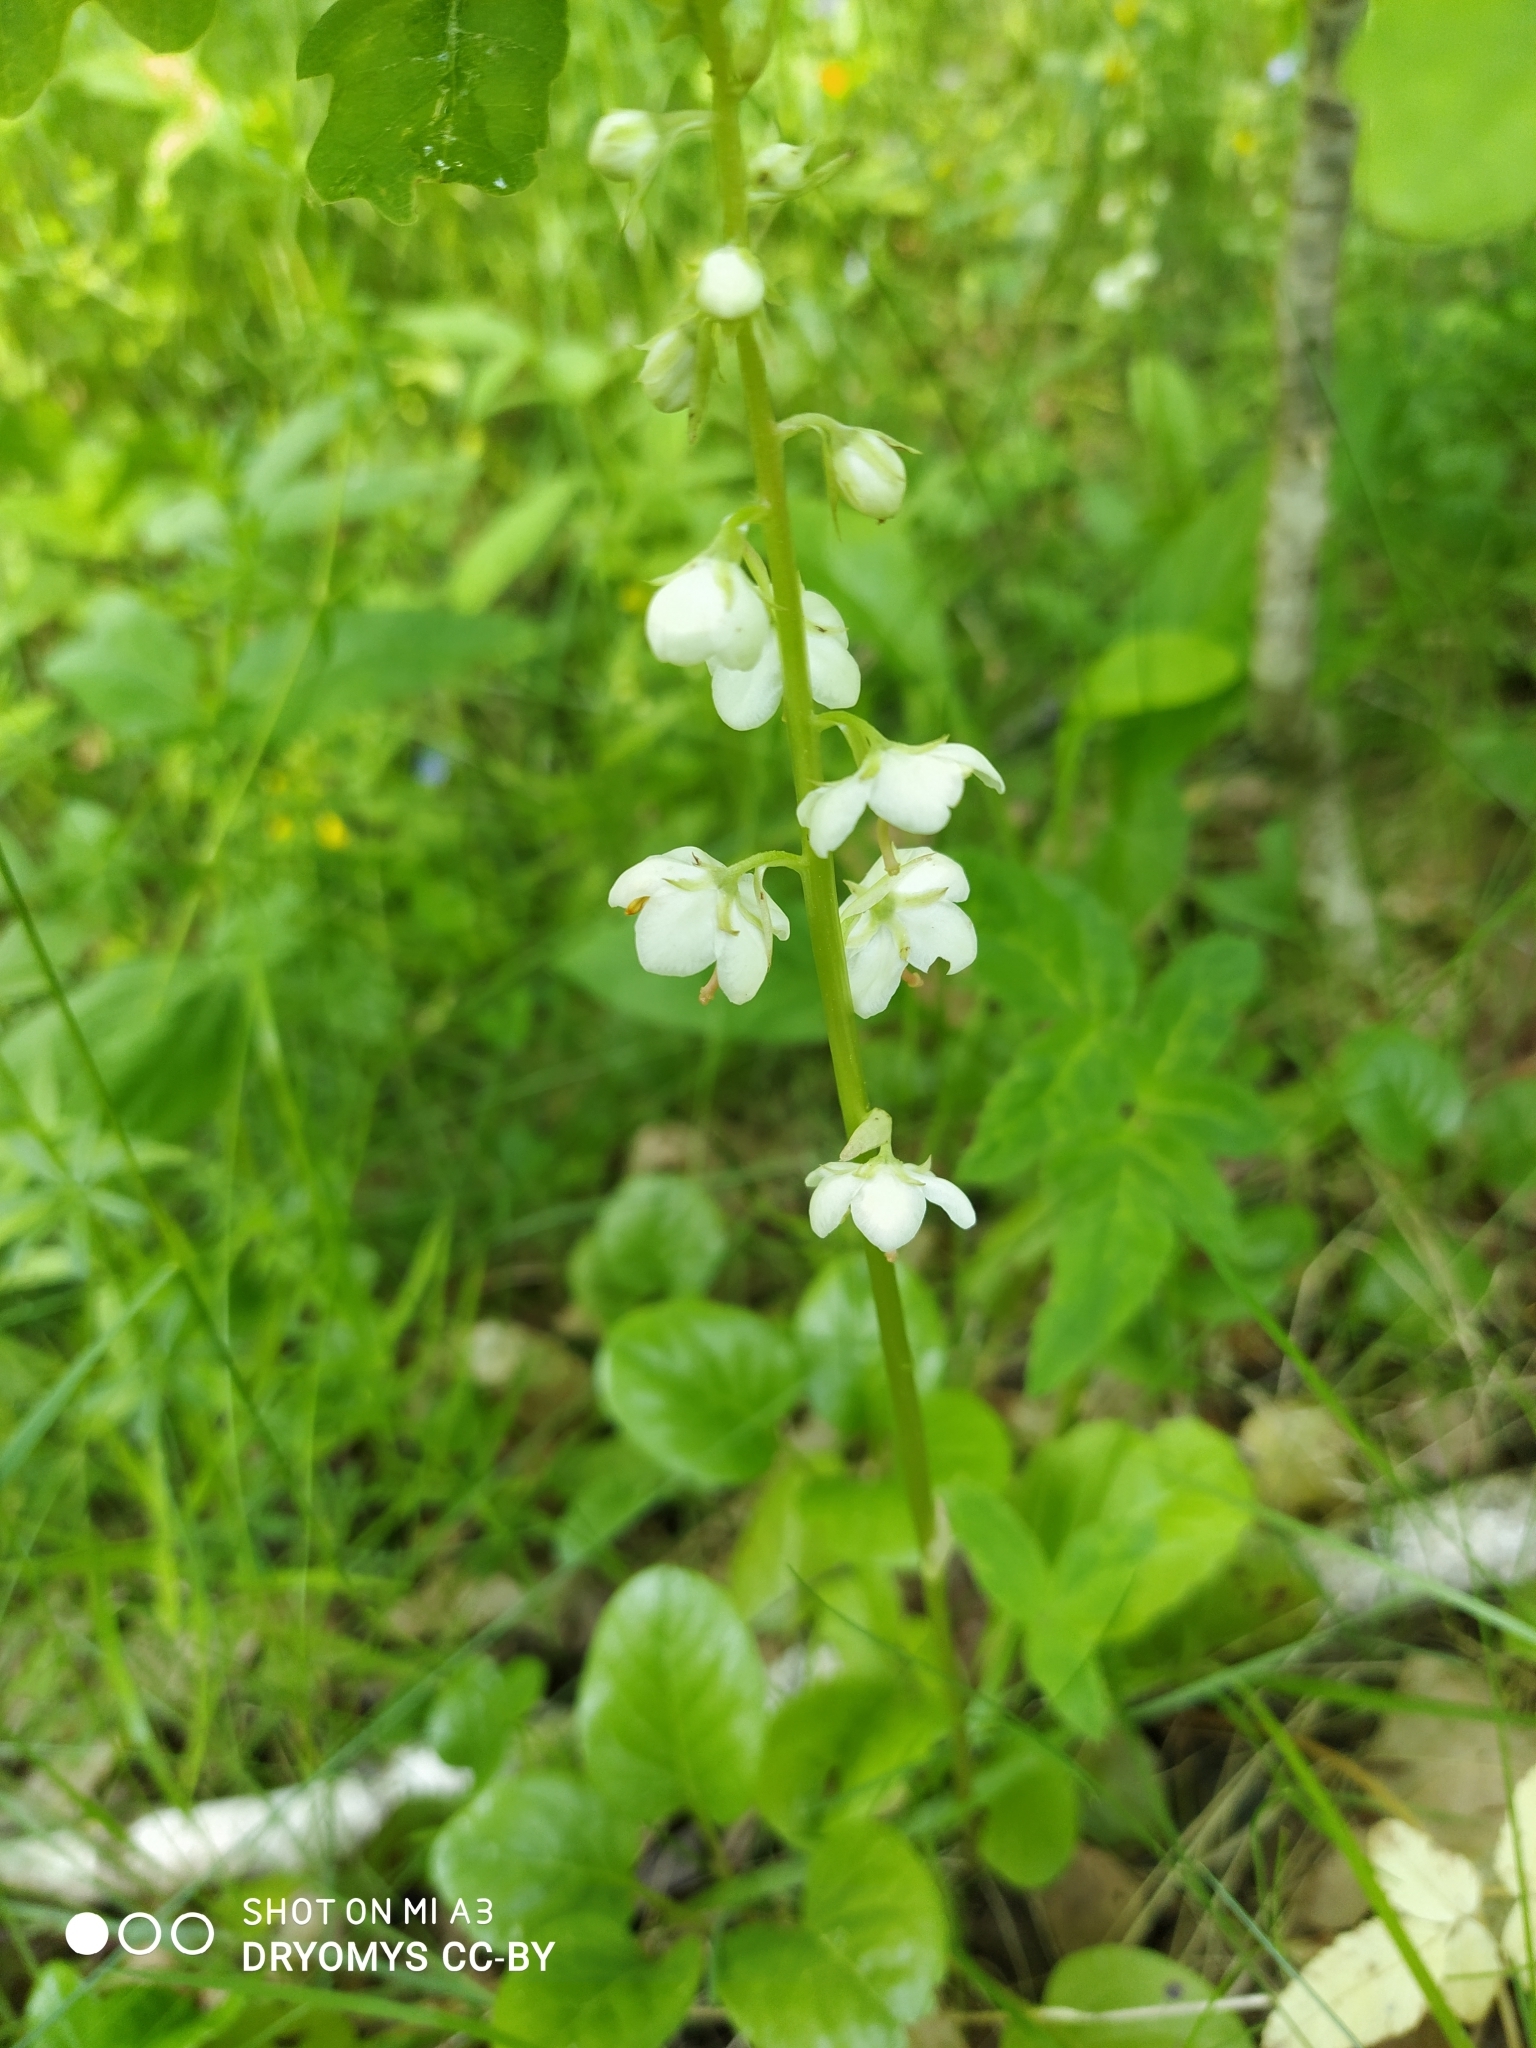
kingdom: Plantae
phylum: Tracheophyta
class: Magnoliopsida
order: Ericales
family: Ericaceae
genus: Pyrola
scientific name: Pyrola rotundifolia
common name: Round-leaved wintergreen
